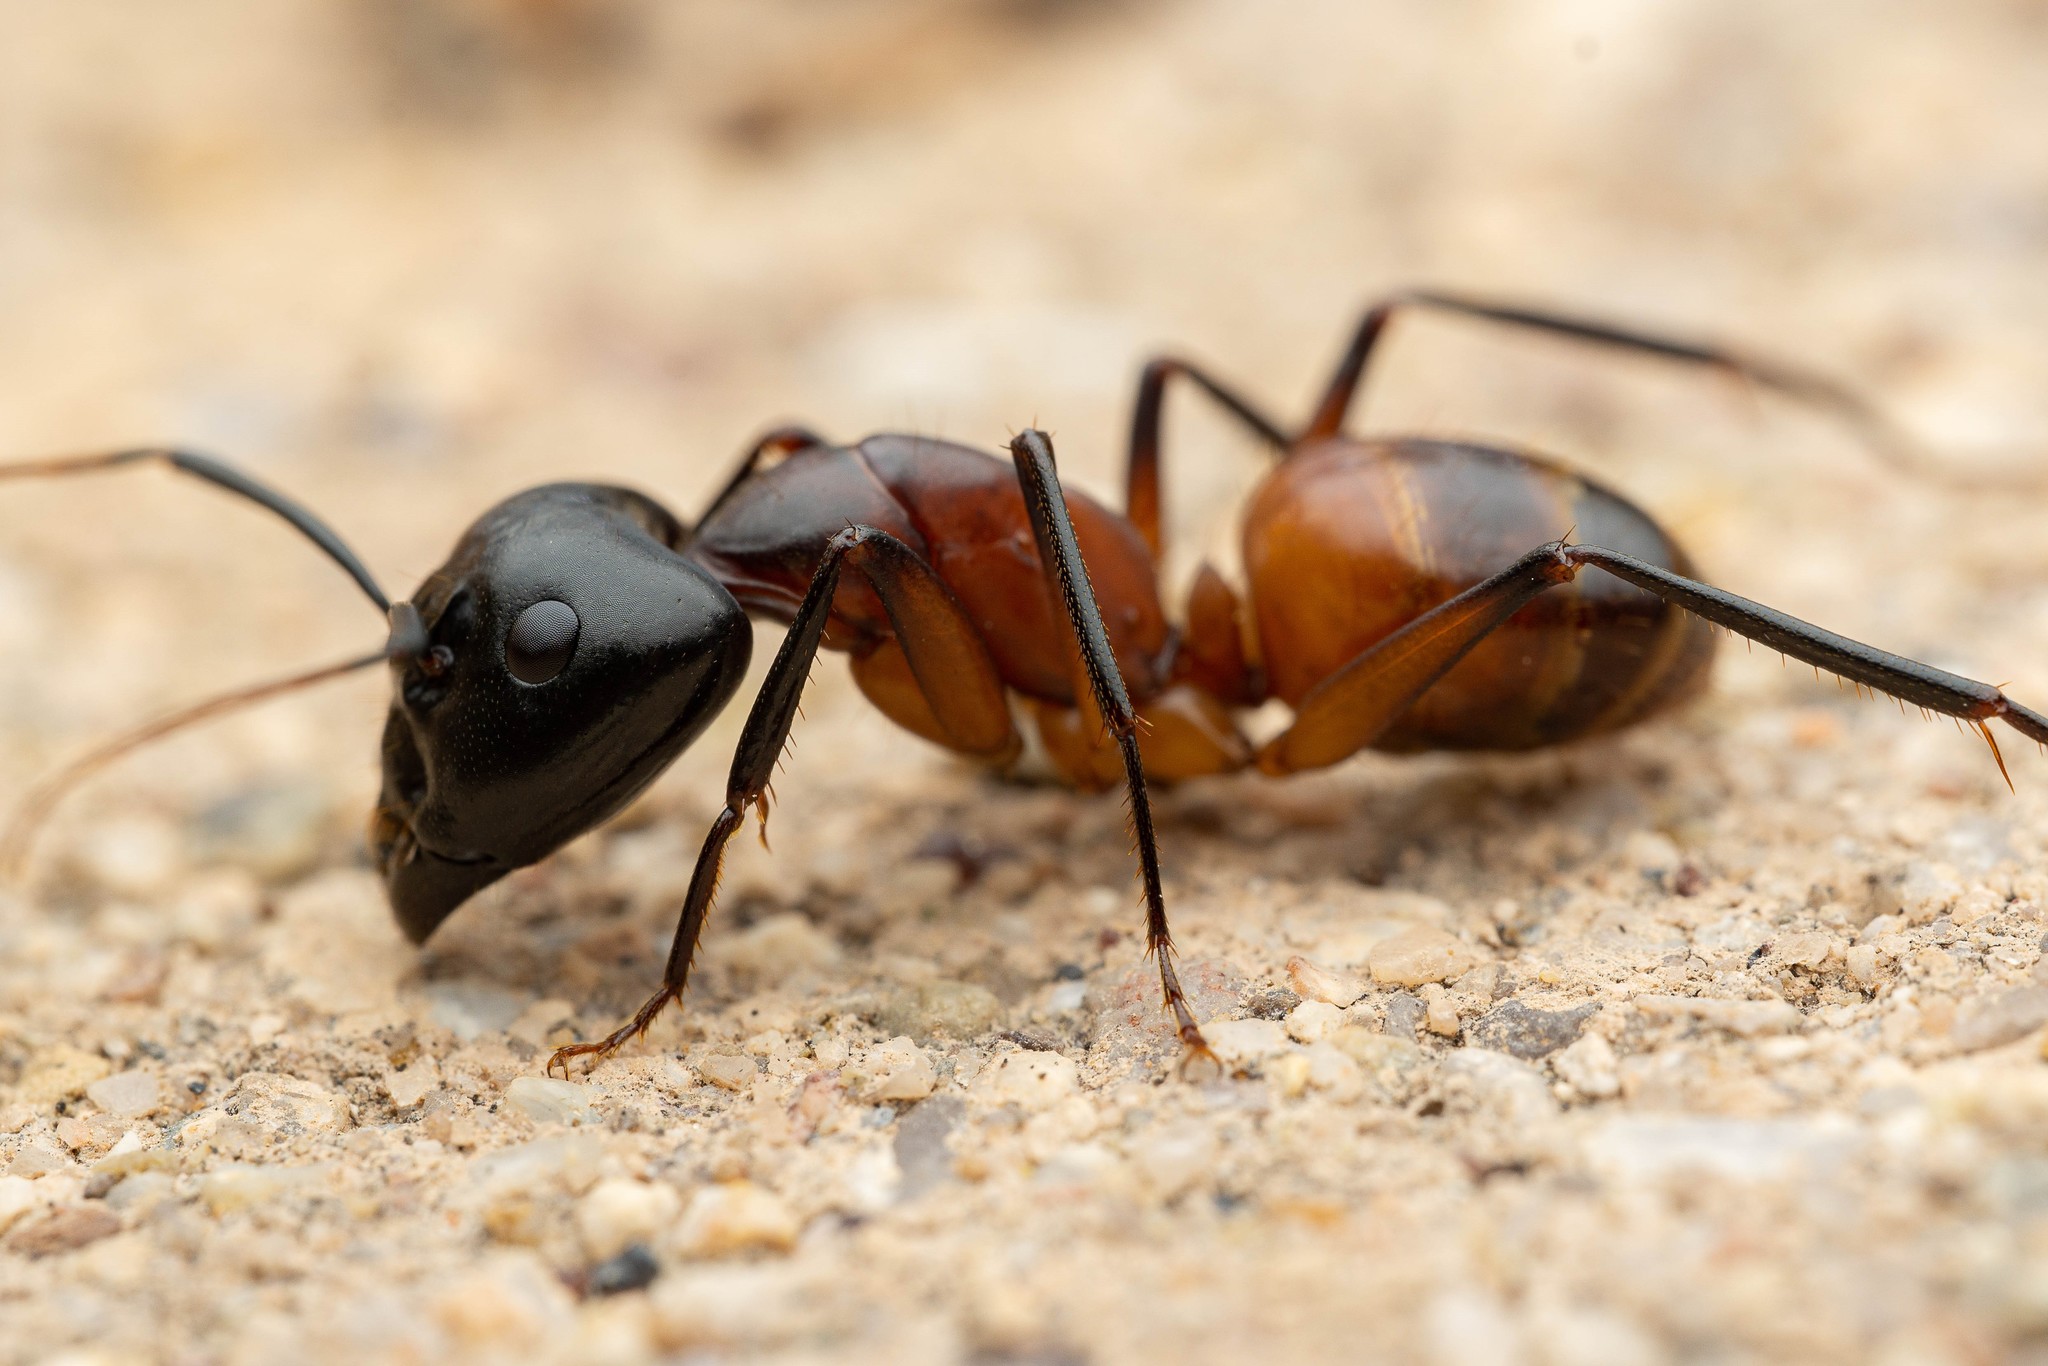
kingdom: Animalia
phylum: Arthropoda
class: Insecta
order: Hymenoptera
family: Formicidae
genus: Camponotus
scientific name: Camponotus ocreatus
